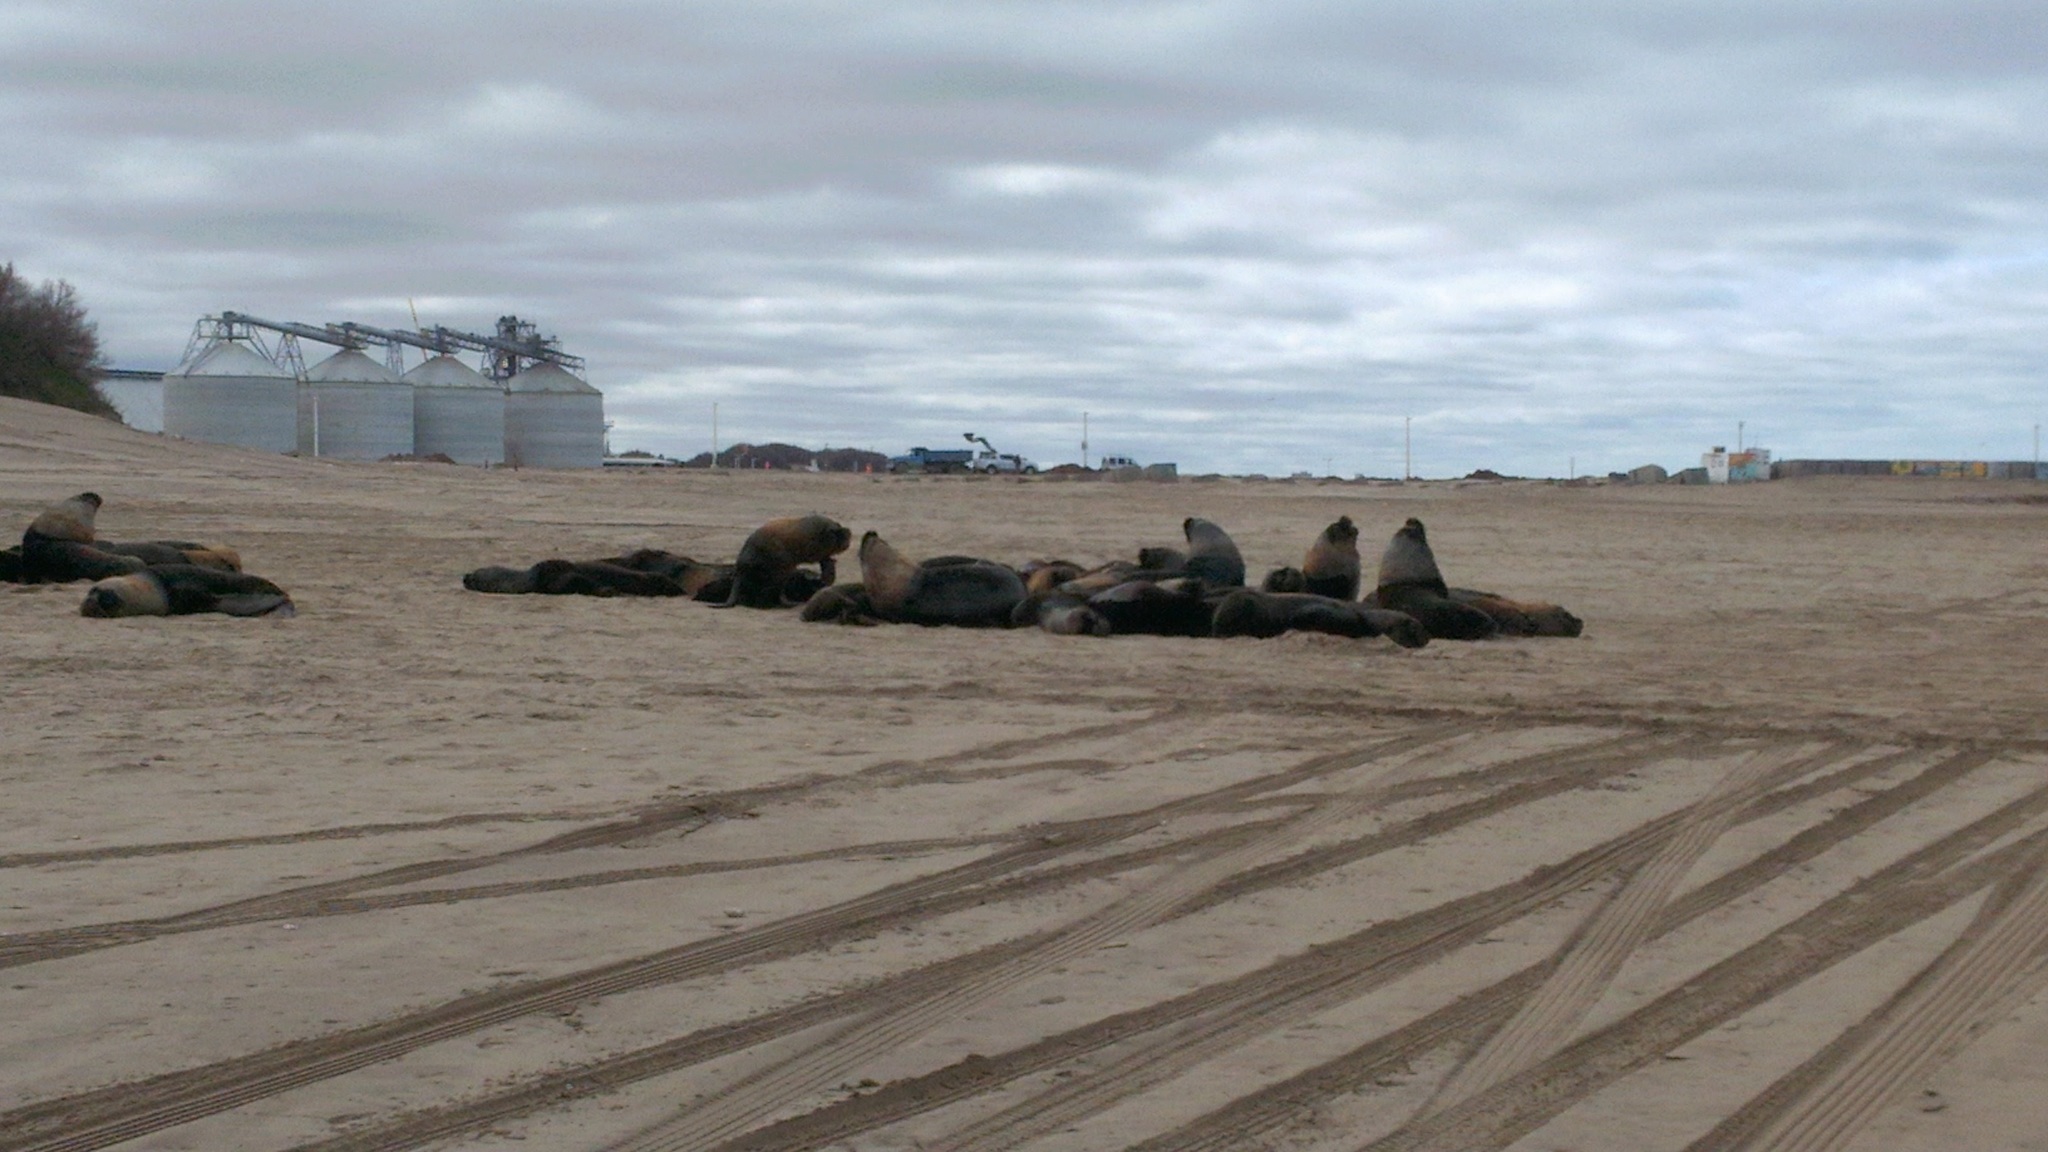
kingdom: Animalia
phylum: Chordata
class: Mammalia
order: Carnivora
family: Otariidae
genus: Otaria
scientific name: Otaria byronia
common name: South american sea lion
